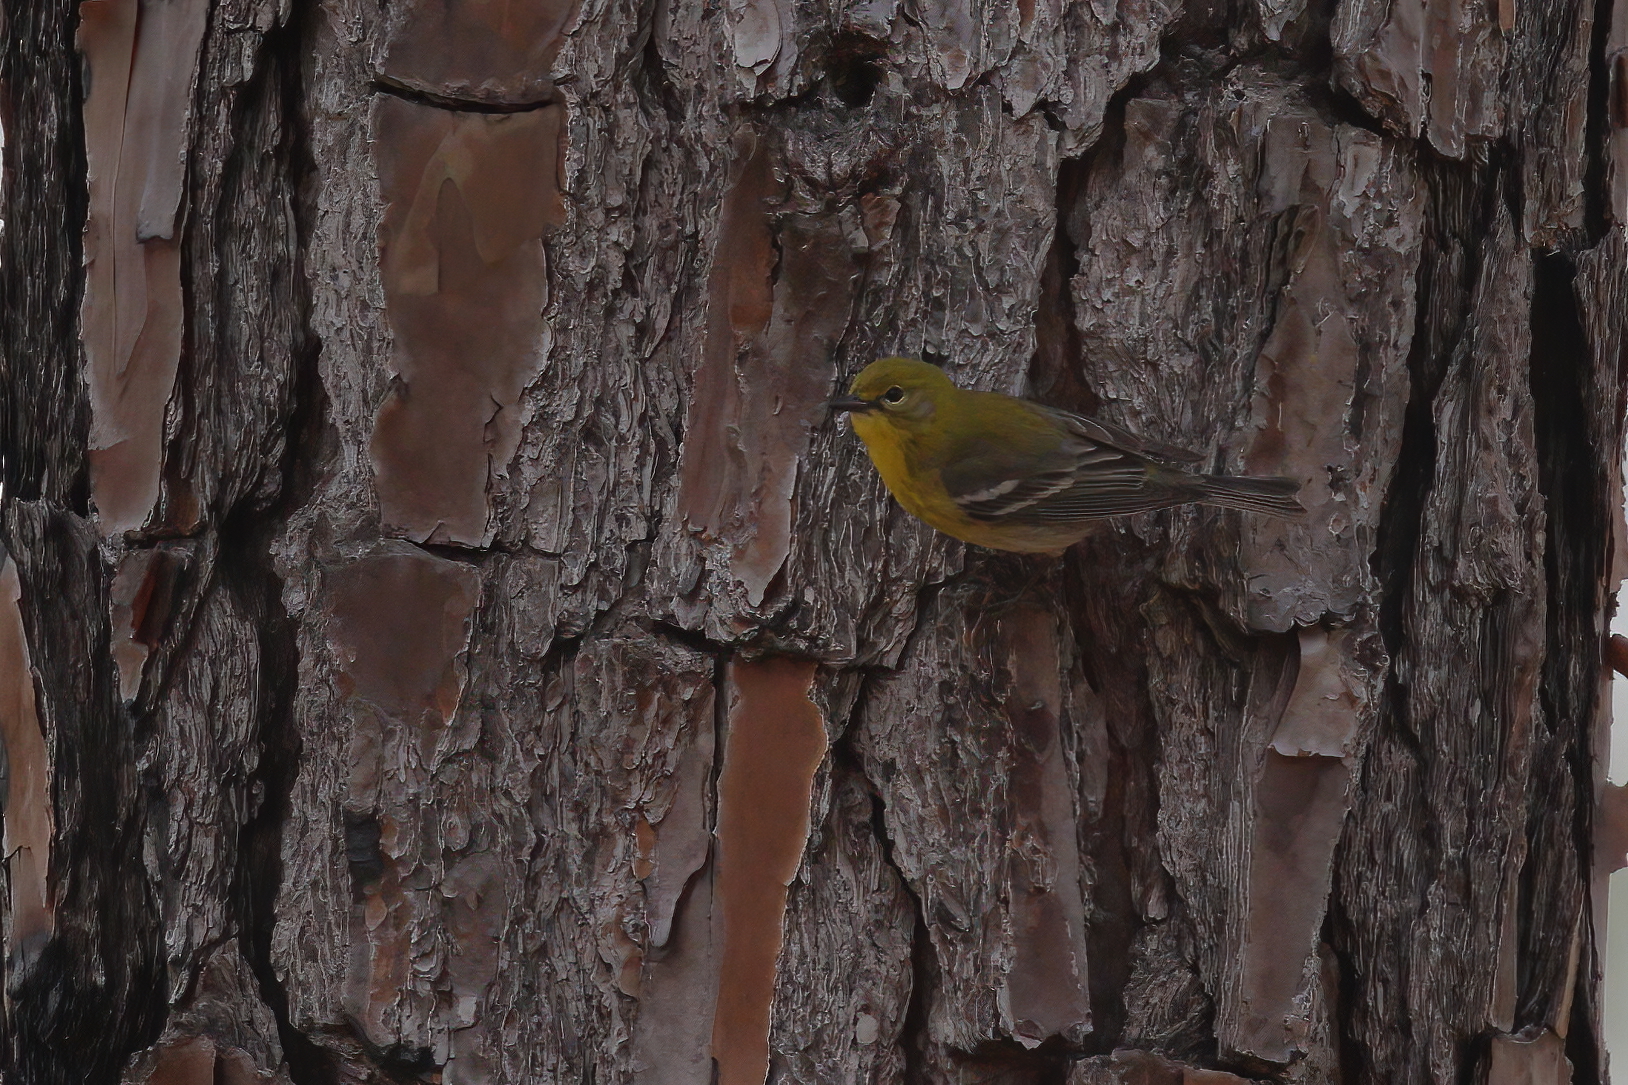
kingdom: Animalia
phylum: Chordata
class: Aves
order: Passeriformes
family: Parulidae
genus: Setophaga
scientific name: Setophaga pinus
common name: Pine warbler
